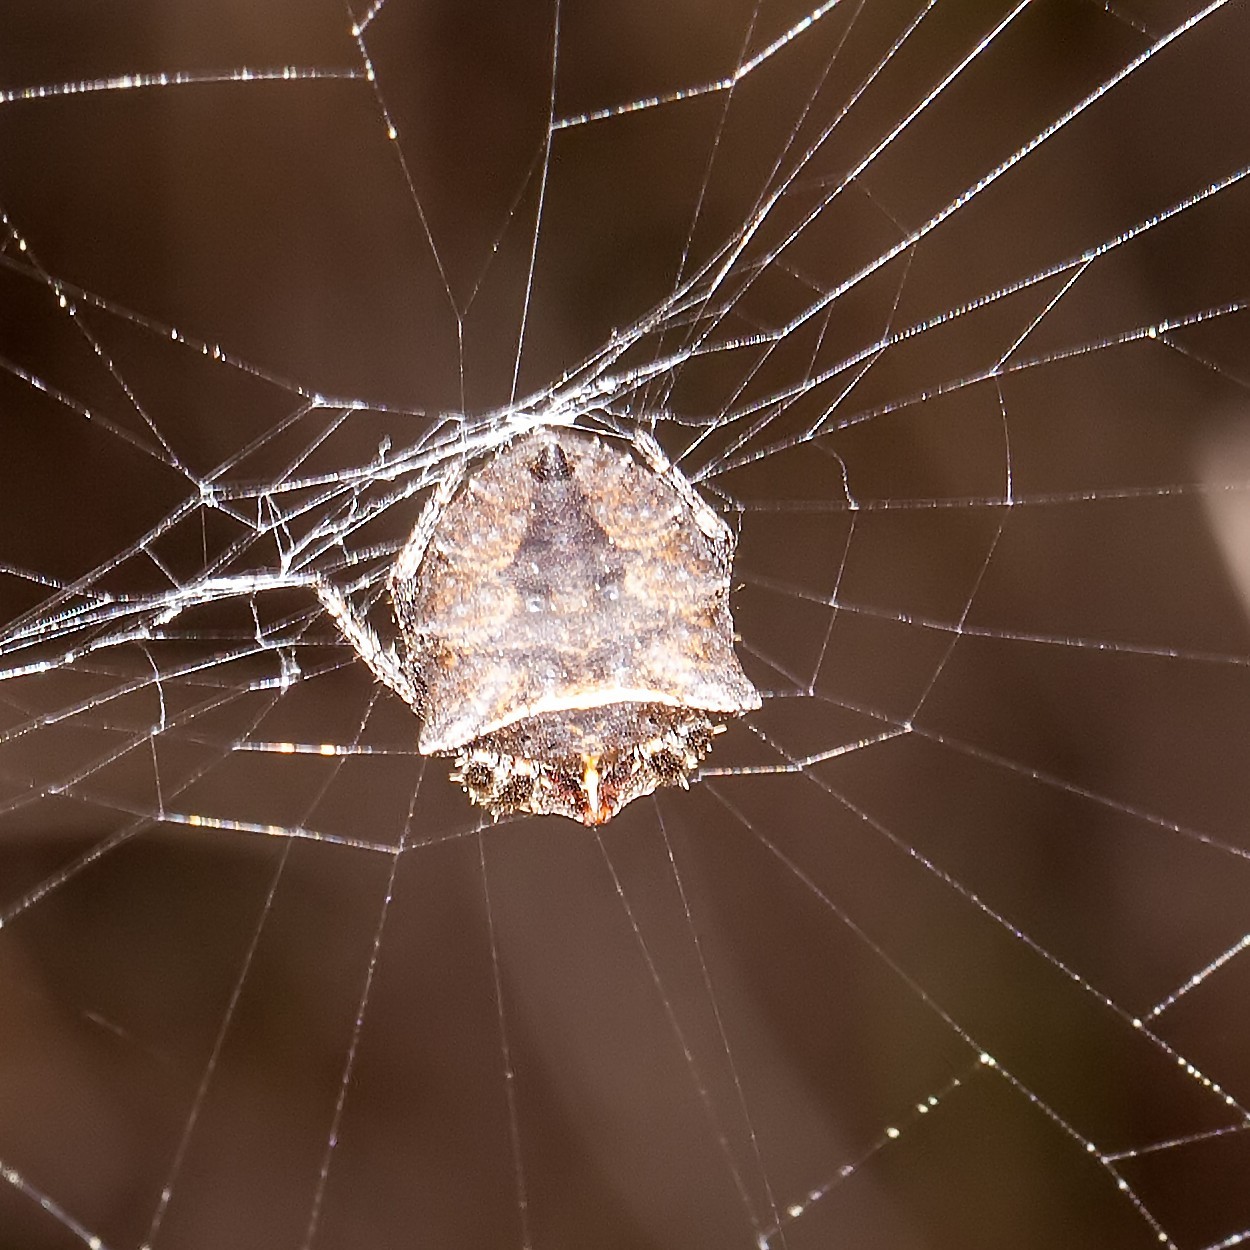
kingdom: Animalia
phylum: Arthropoda
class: Arachnida
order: Araneae
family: Araneidae
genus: Acanthepeira
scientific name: Acanthepeira cherokee
